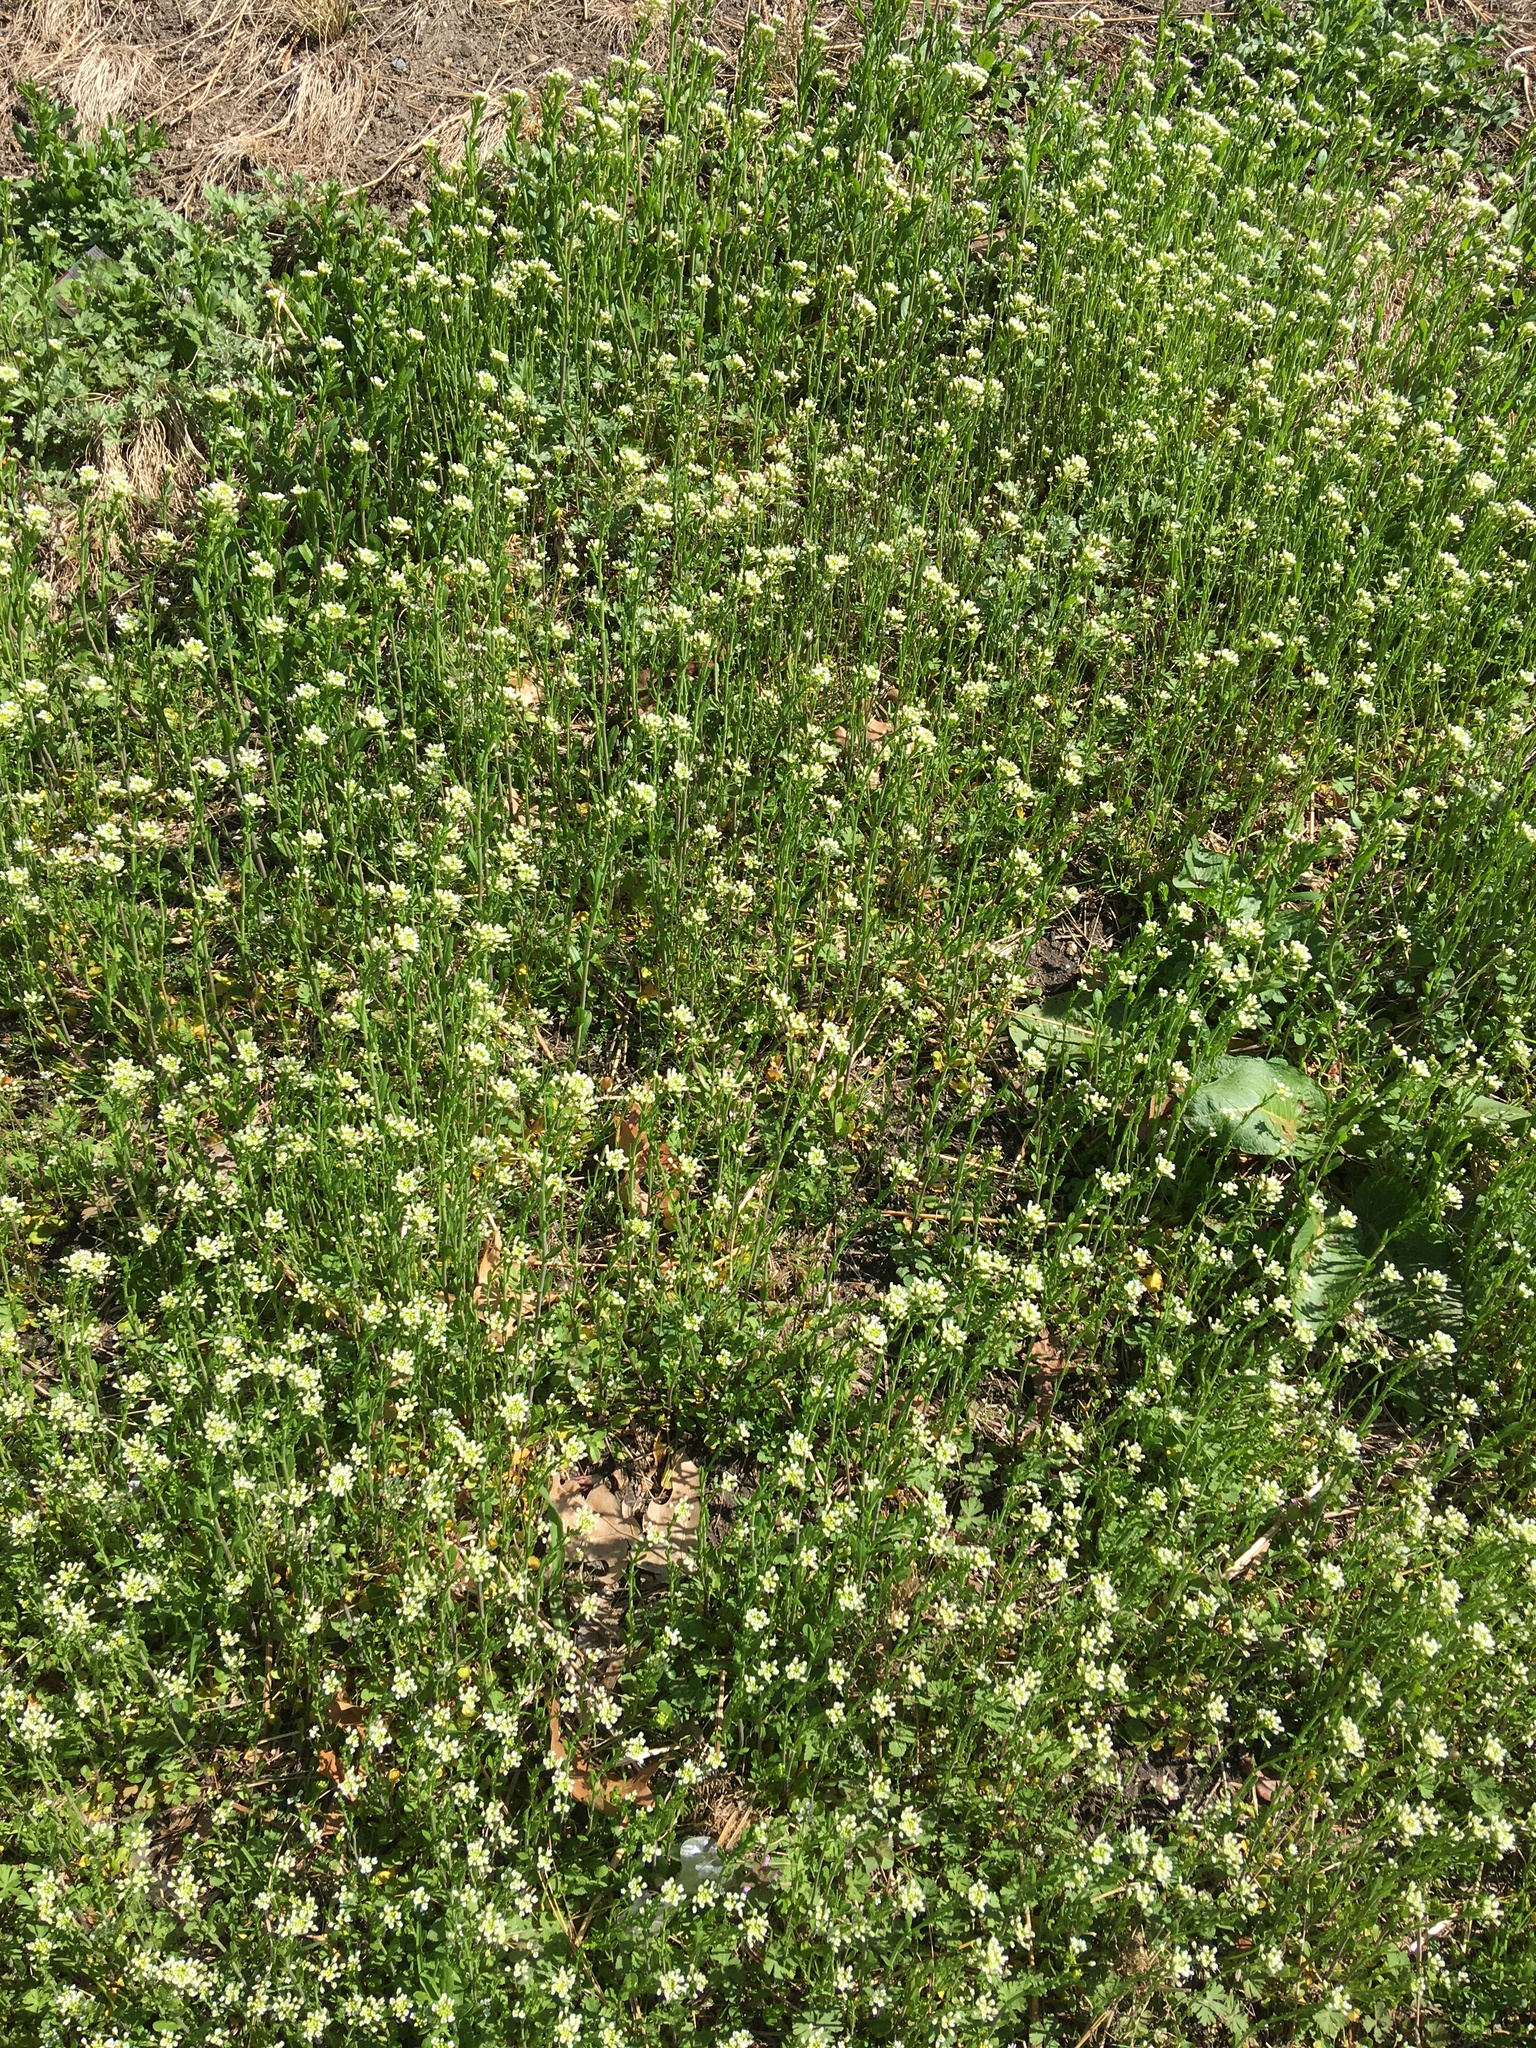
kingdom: Plantae
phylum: Tracheophyta
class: Magnoliopsida
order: Brassicales
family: Brassicaceae
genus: Mummenhoffia
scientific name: Mummenhoffia alliacea
